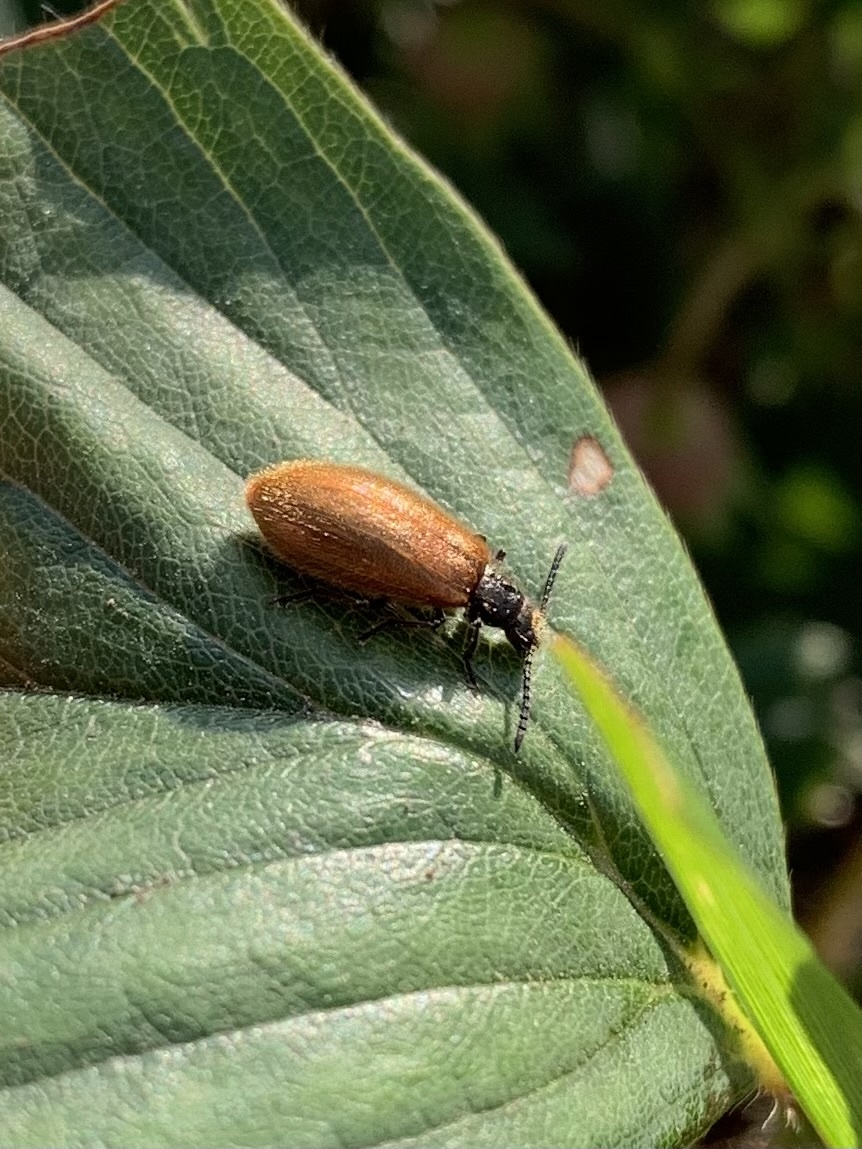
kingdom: Animalia
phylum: Arthropoda
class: Insecta
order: Coleoptera
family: Tenebrionidae
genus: Lagria
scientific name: Lagria hirta
